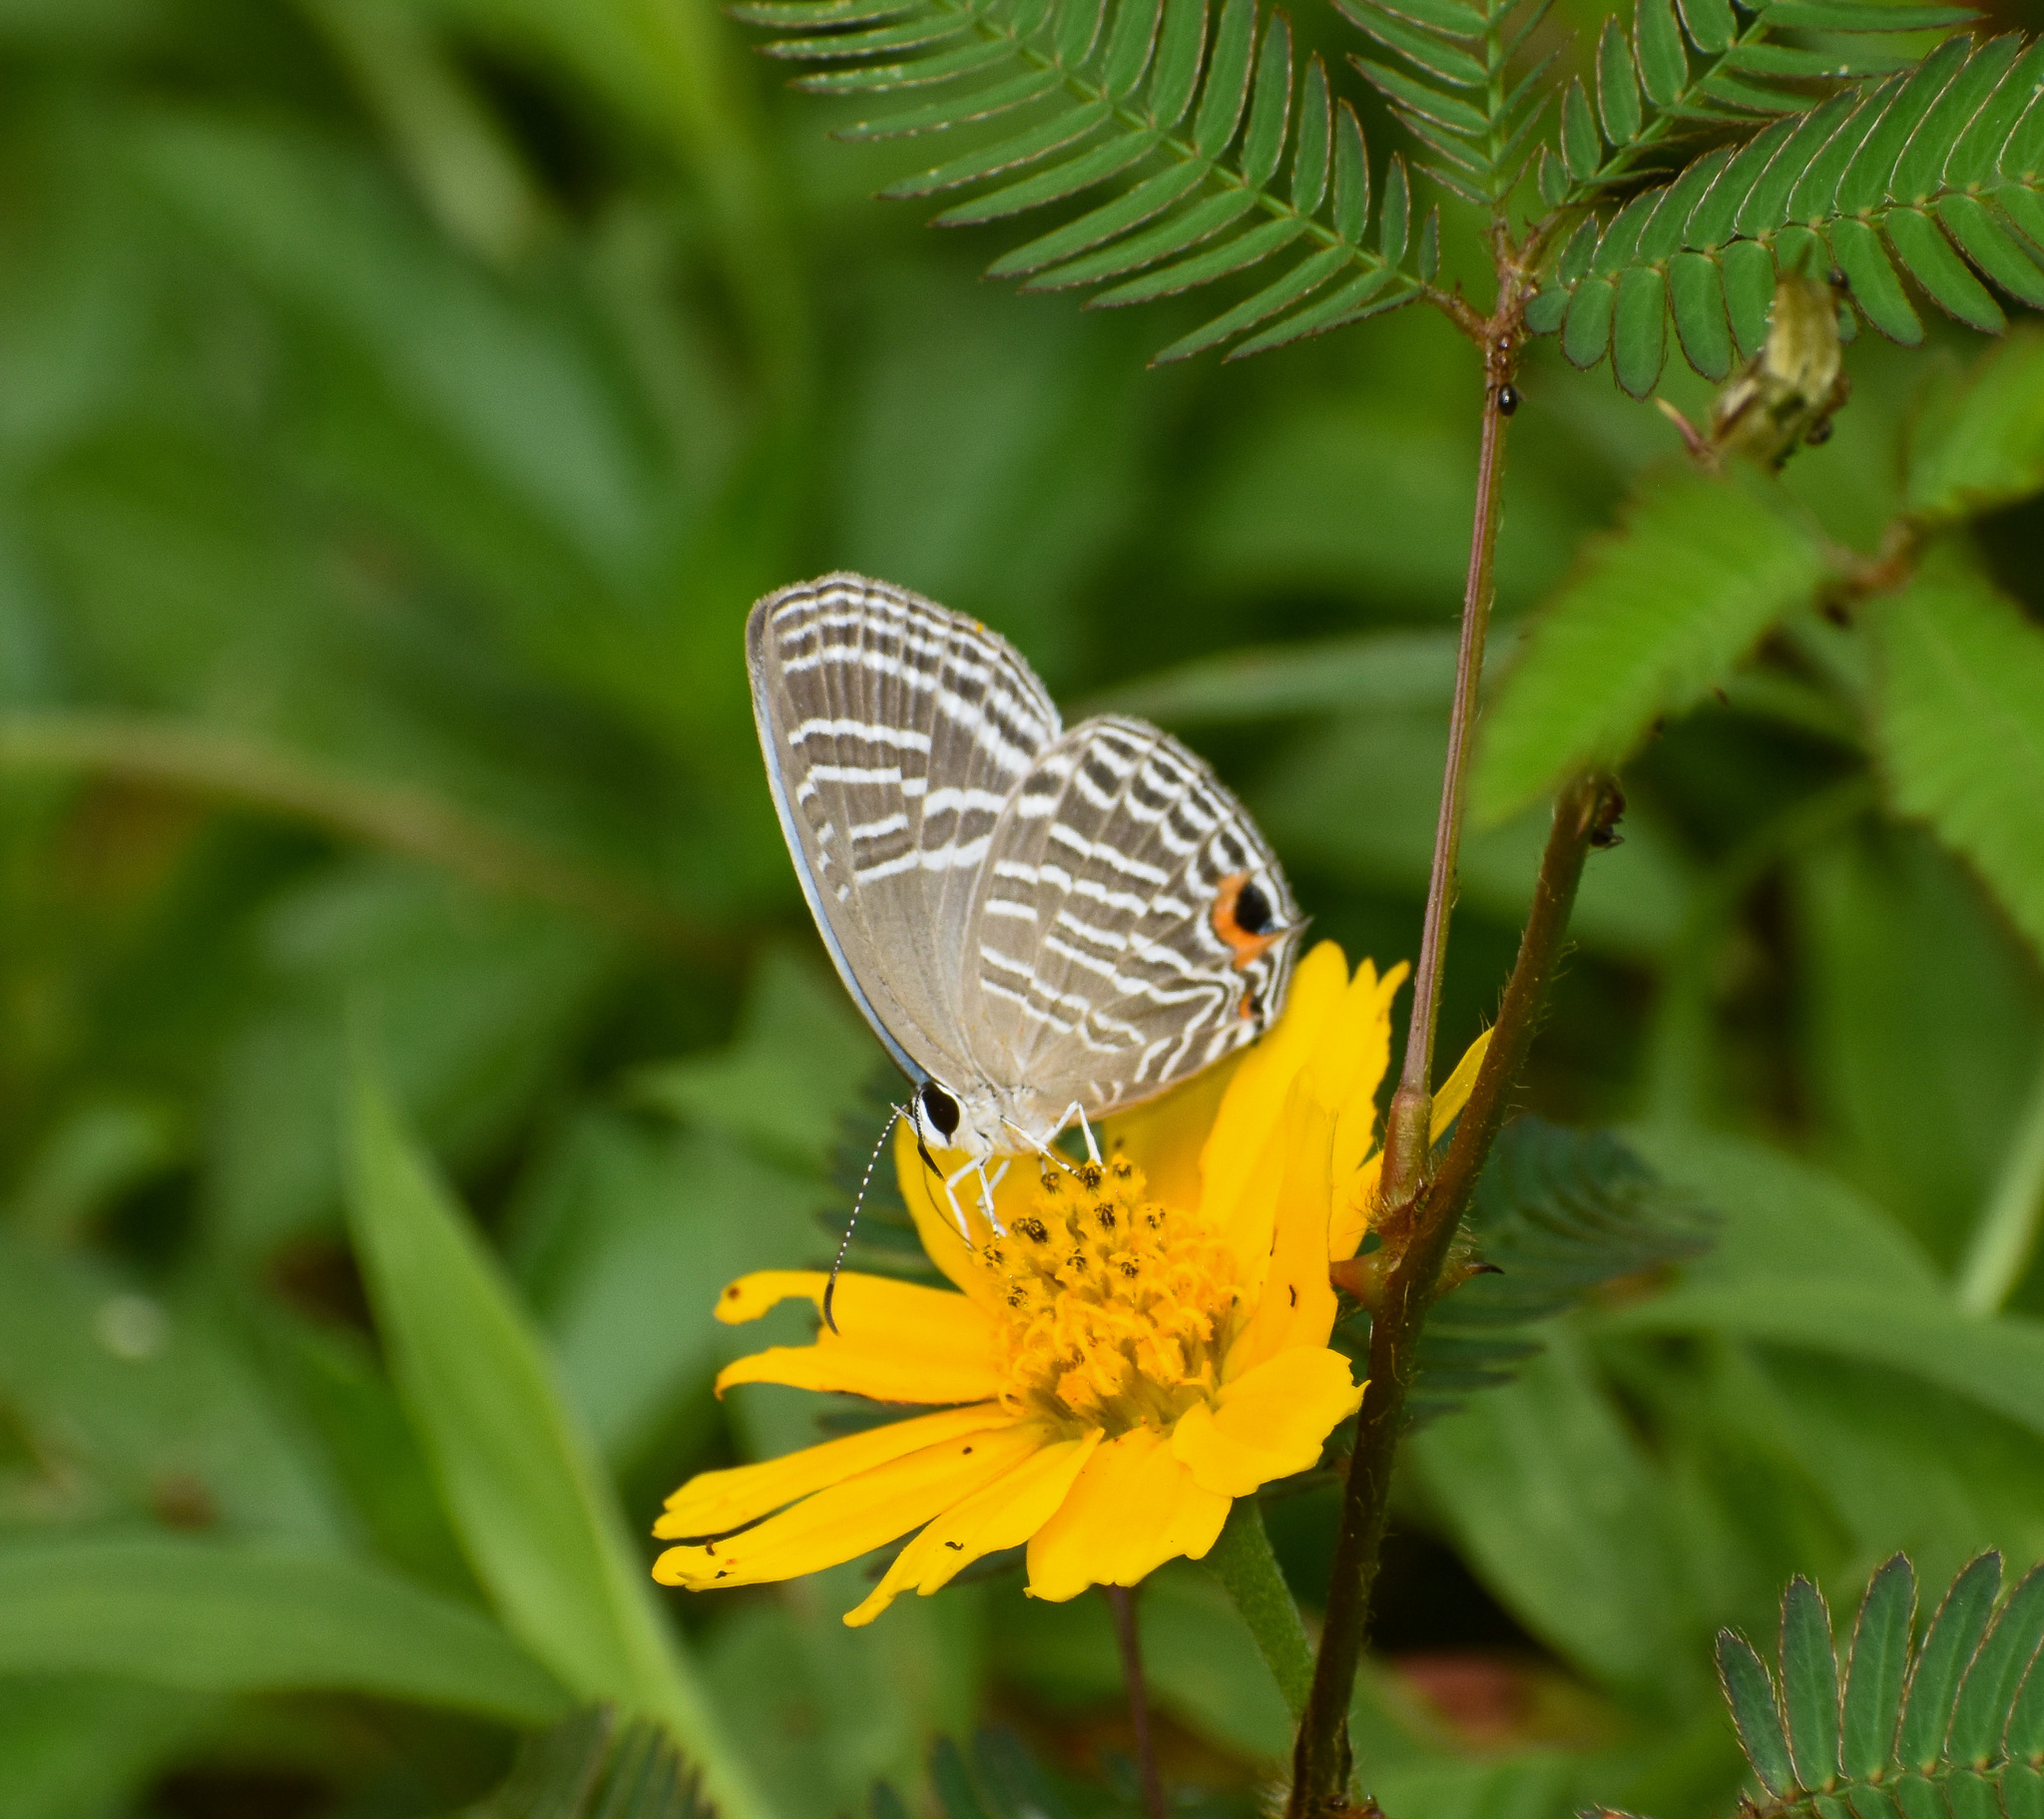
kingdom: Animalia
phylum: Arthropoda
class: Insecta
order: Lepidoptera
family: Lycaenidae
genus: Jamides
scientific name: Jamides celeno
